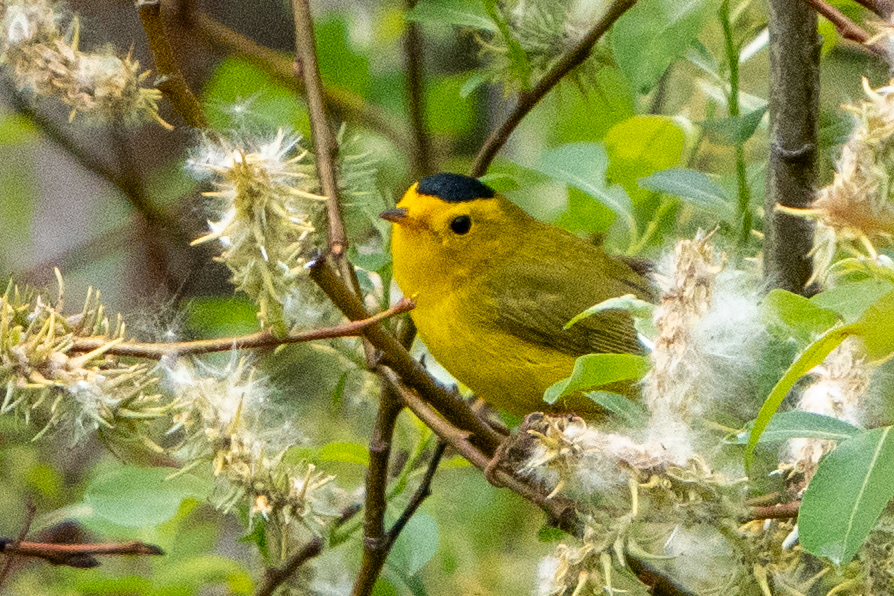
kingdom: Animalia
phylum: Chordata
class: Aves
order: Passeriformes
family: Parulidae
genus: Cardellina
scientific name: Cardellina pusilla
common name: Wilson's warbler
